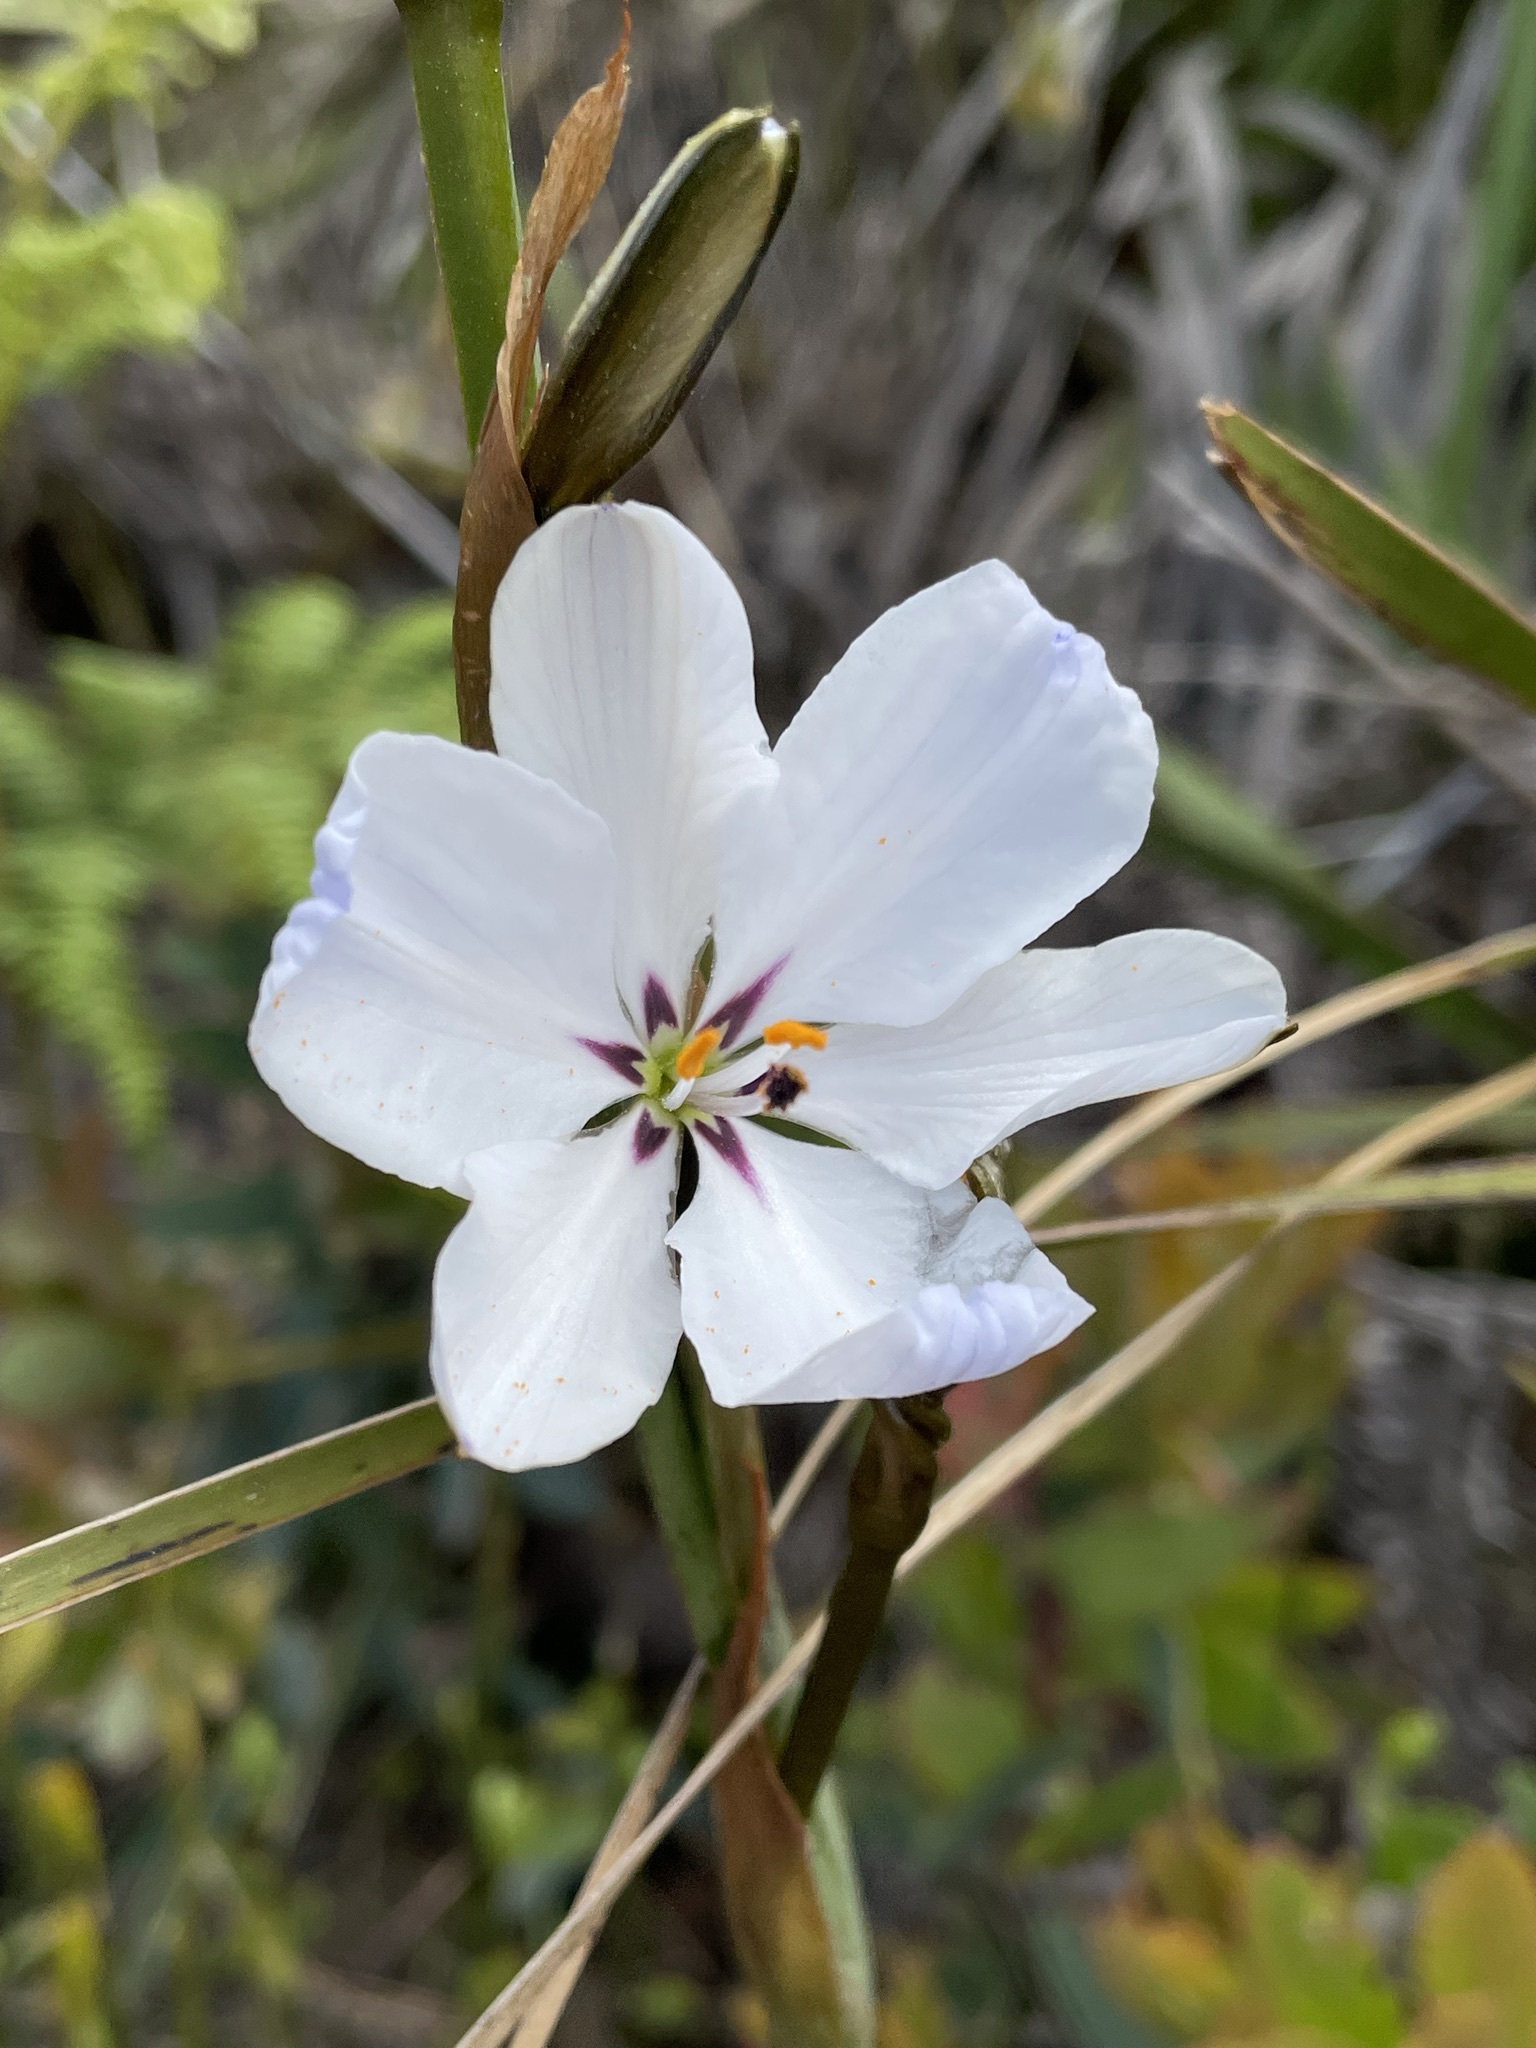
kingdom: Plantae
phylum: Tracheophyta
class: Liliopsida
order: Asparagales
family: Iridaceae
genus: Aristea
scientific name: Aristea spiralis
